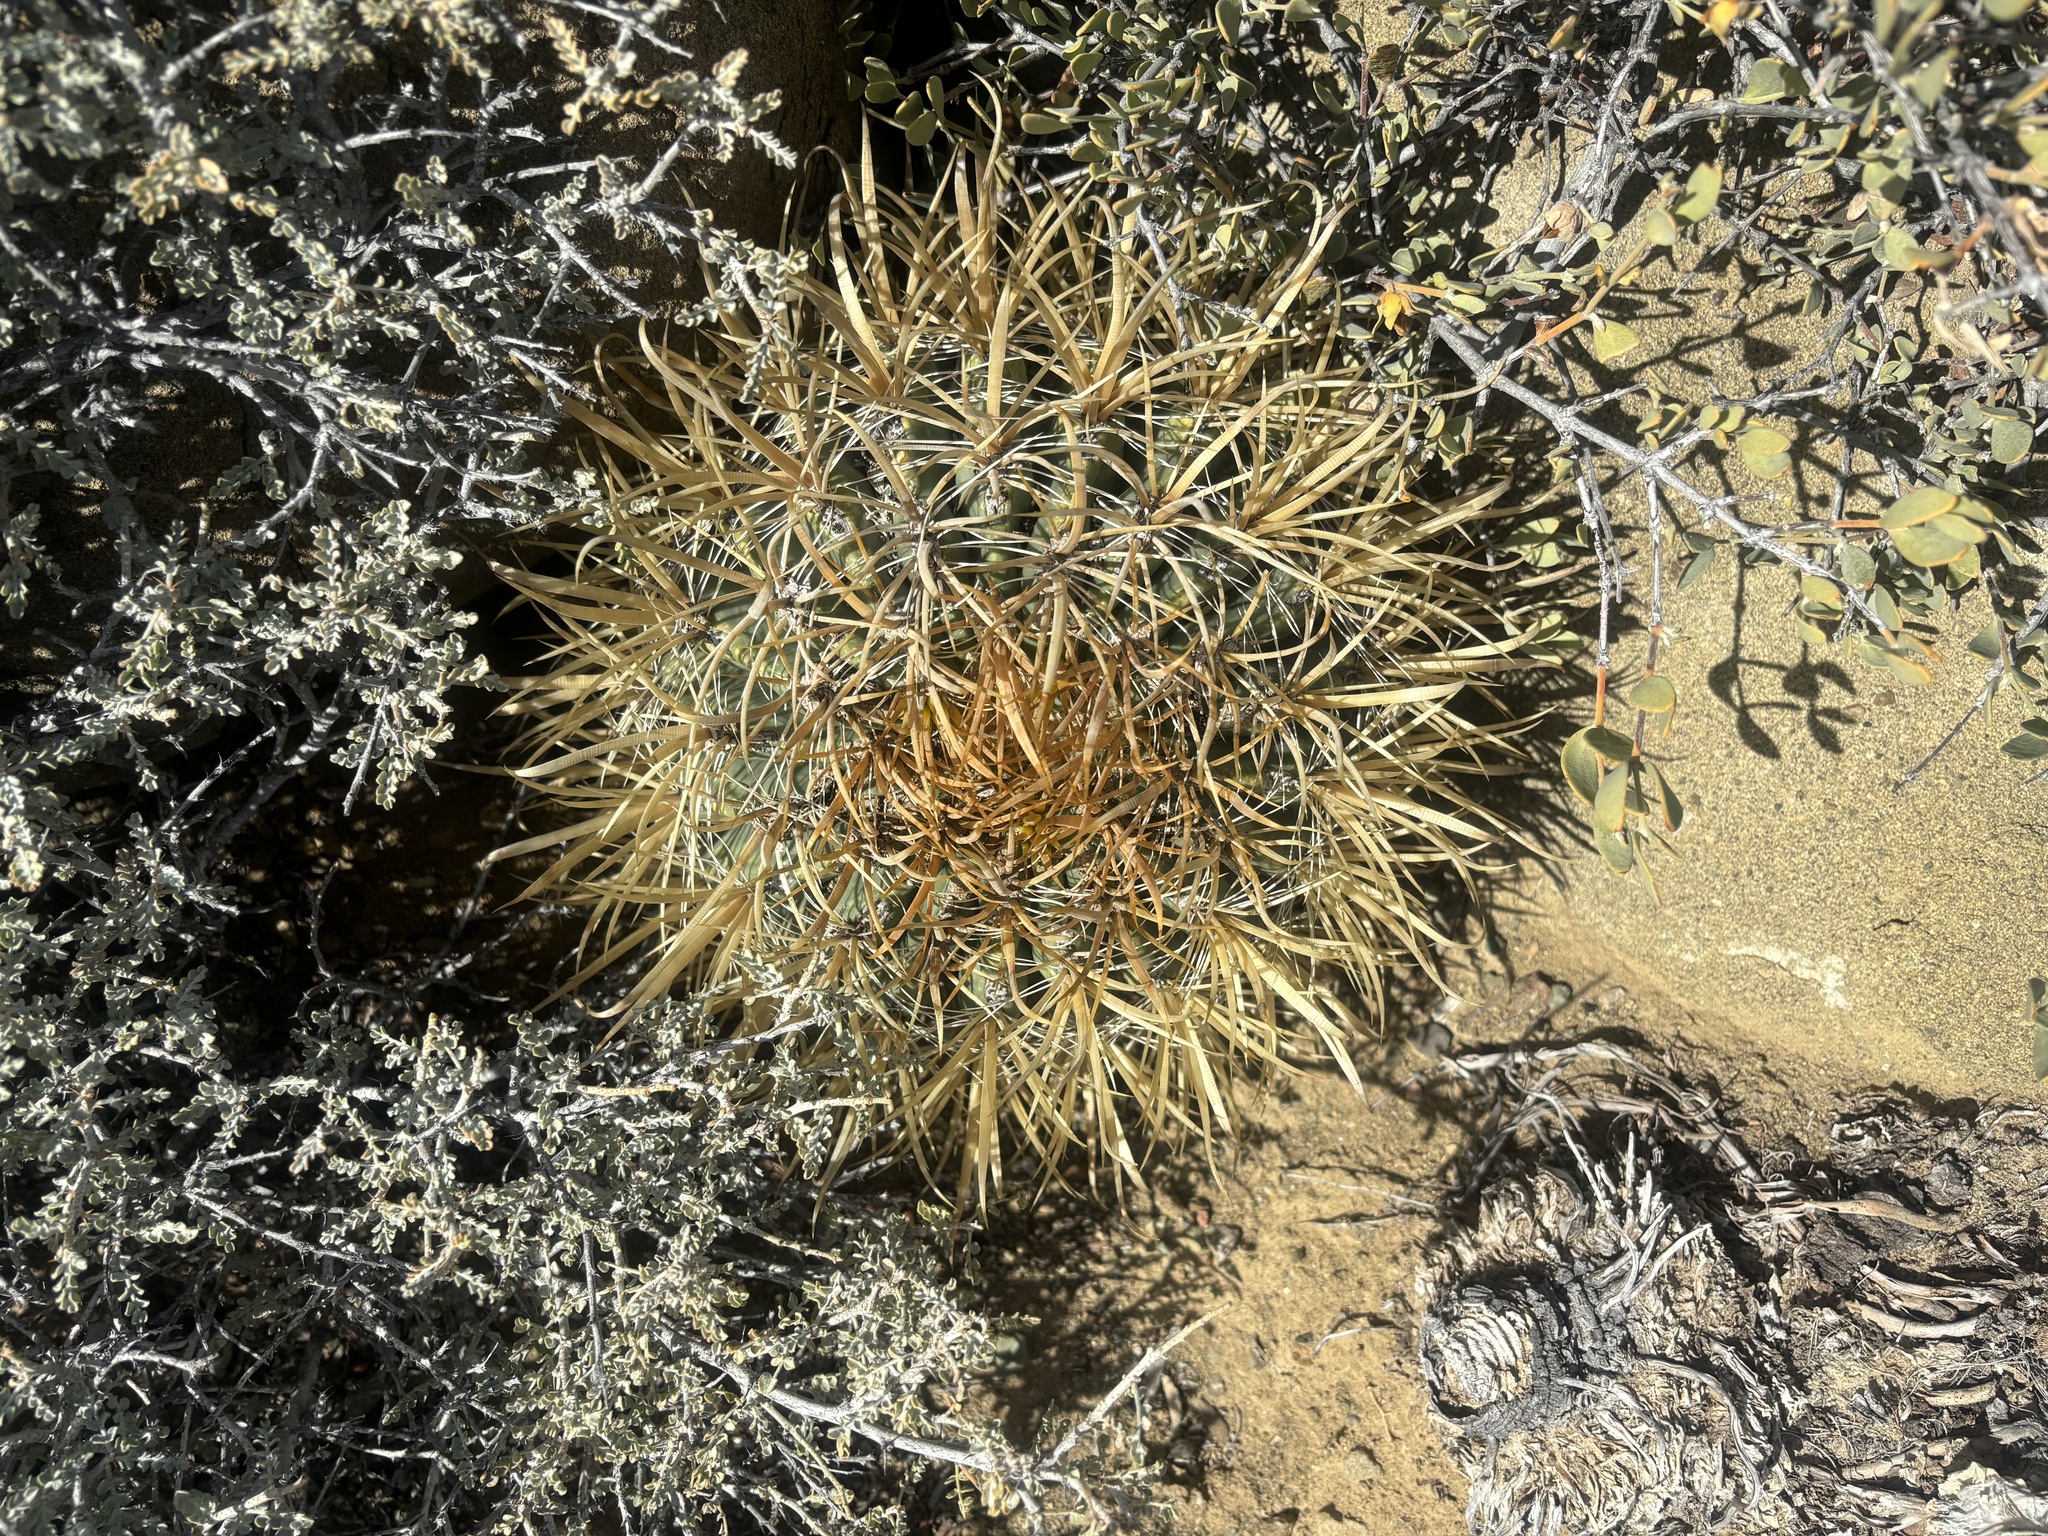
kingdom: Plantae
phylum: Tracheophyta
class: Magnoliopsida
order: Caryophyllales
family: Cactaceae
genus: Ferocactus
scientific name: Ferocactus chrysacanthus
